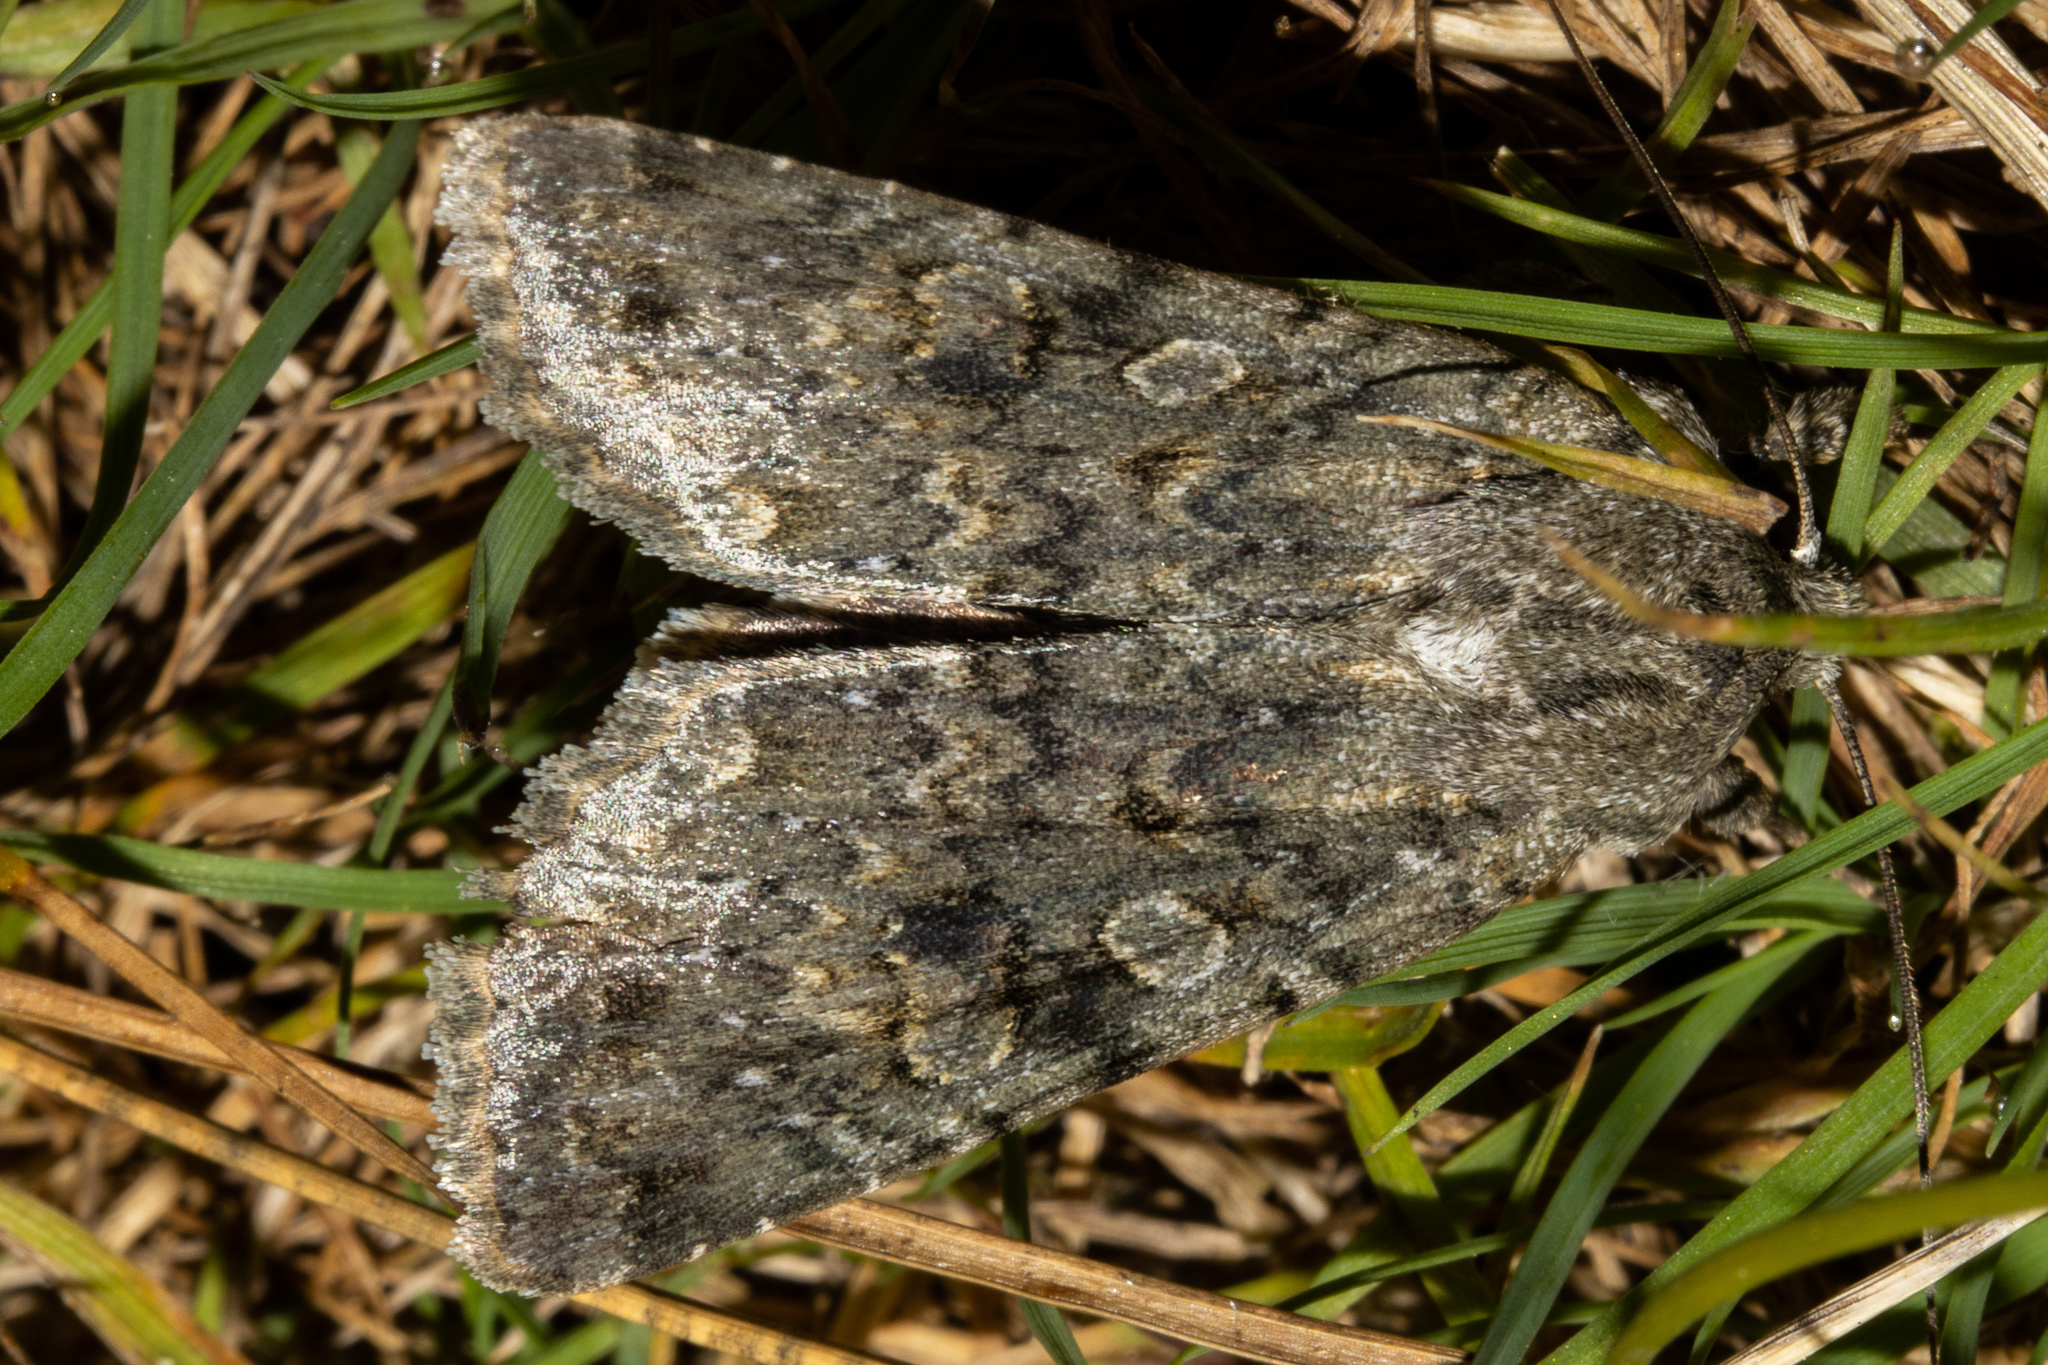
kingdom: Animalia
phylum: Arthropoda
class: Insecta
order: Lepidoptera
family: Noctuidae
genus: Ichneutica
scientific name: Ichneutica
